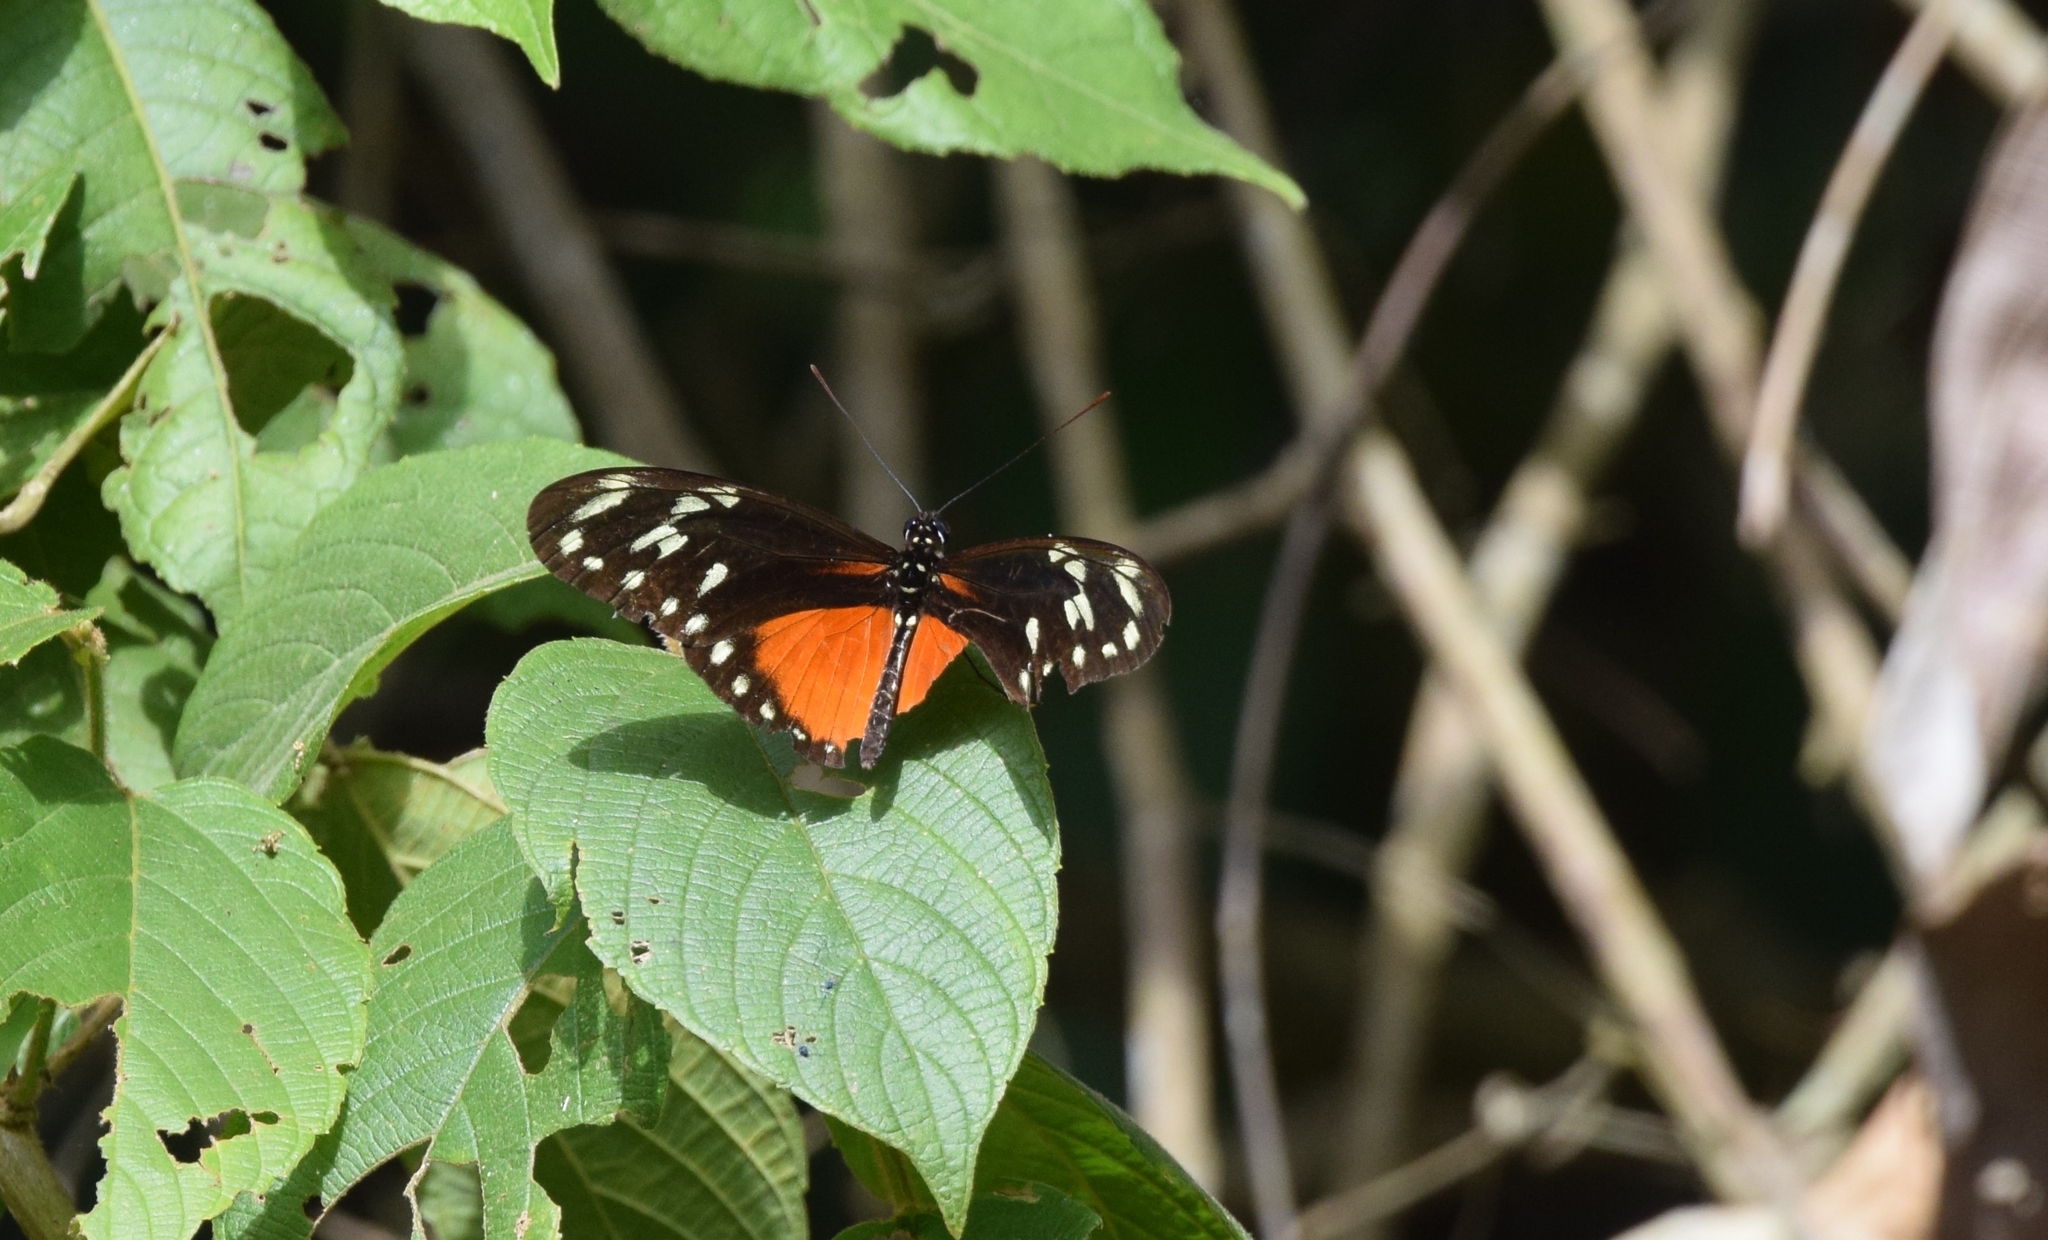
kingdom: Animalia
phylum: Arthropoda
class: Insecta
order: Lepidoptera
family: Nymphalidae
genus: Heliconius
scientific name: Heliconius hecalesia
